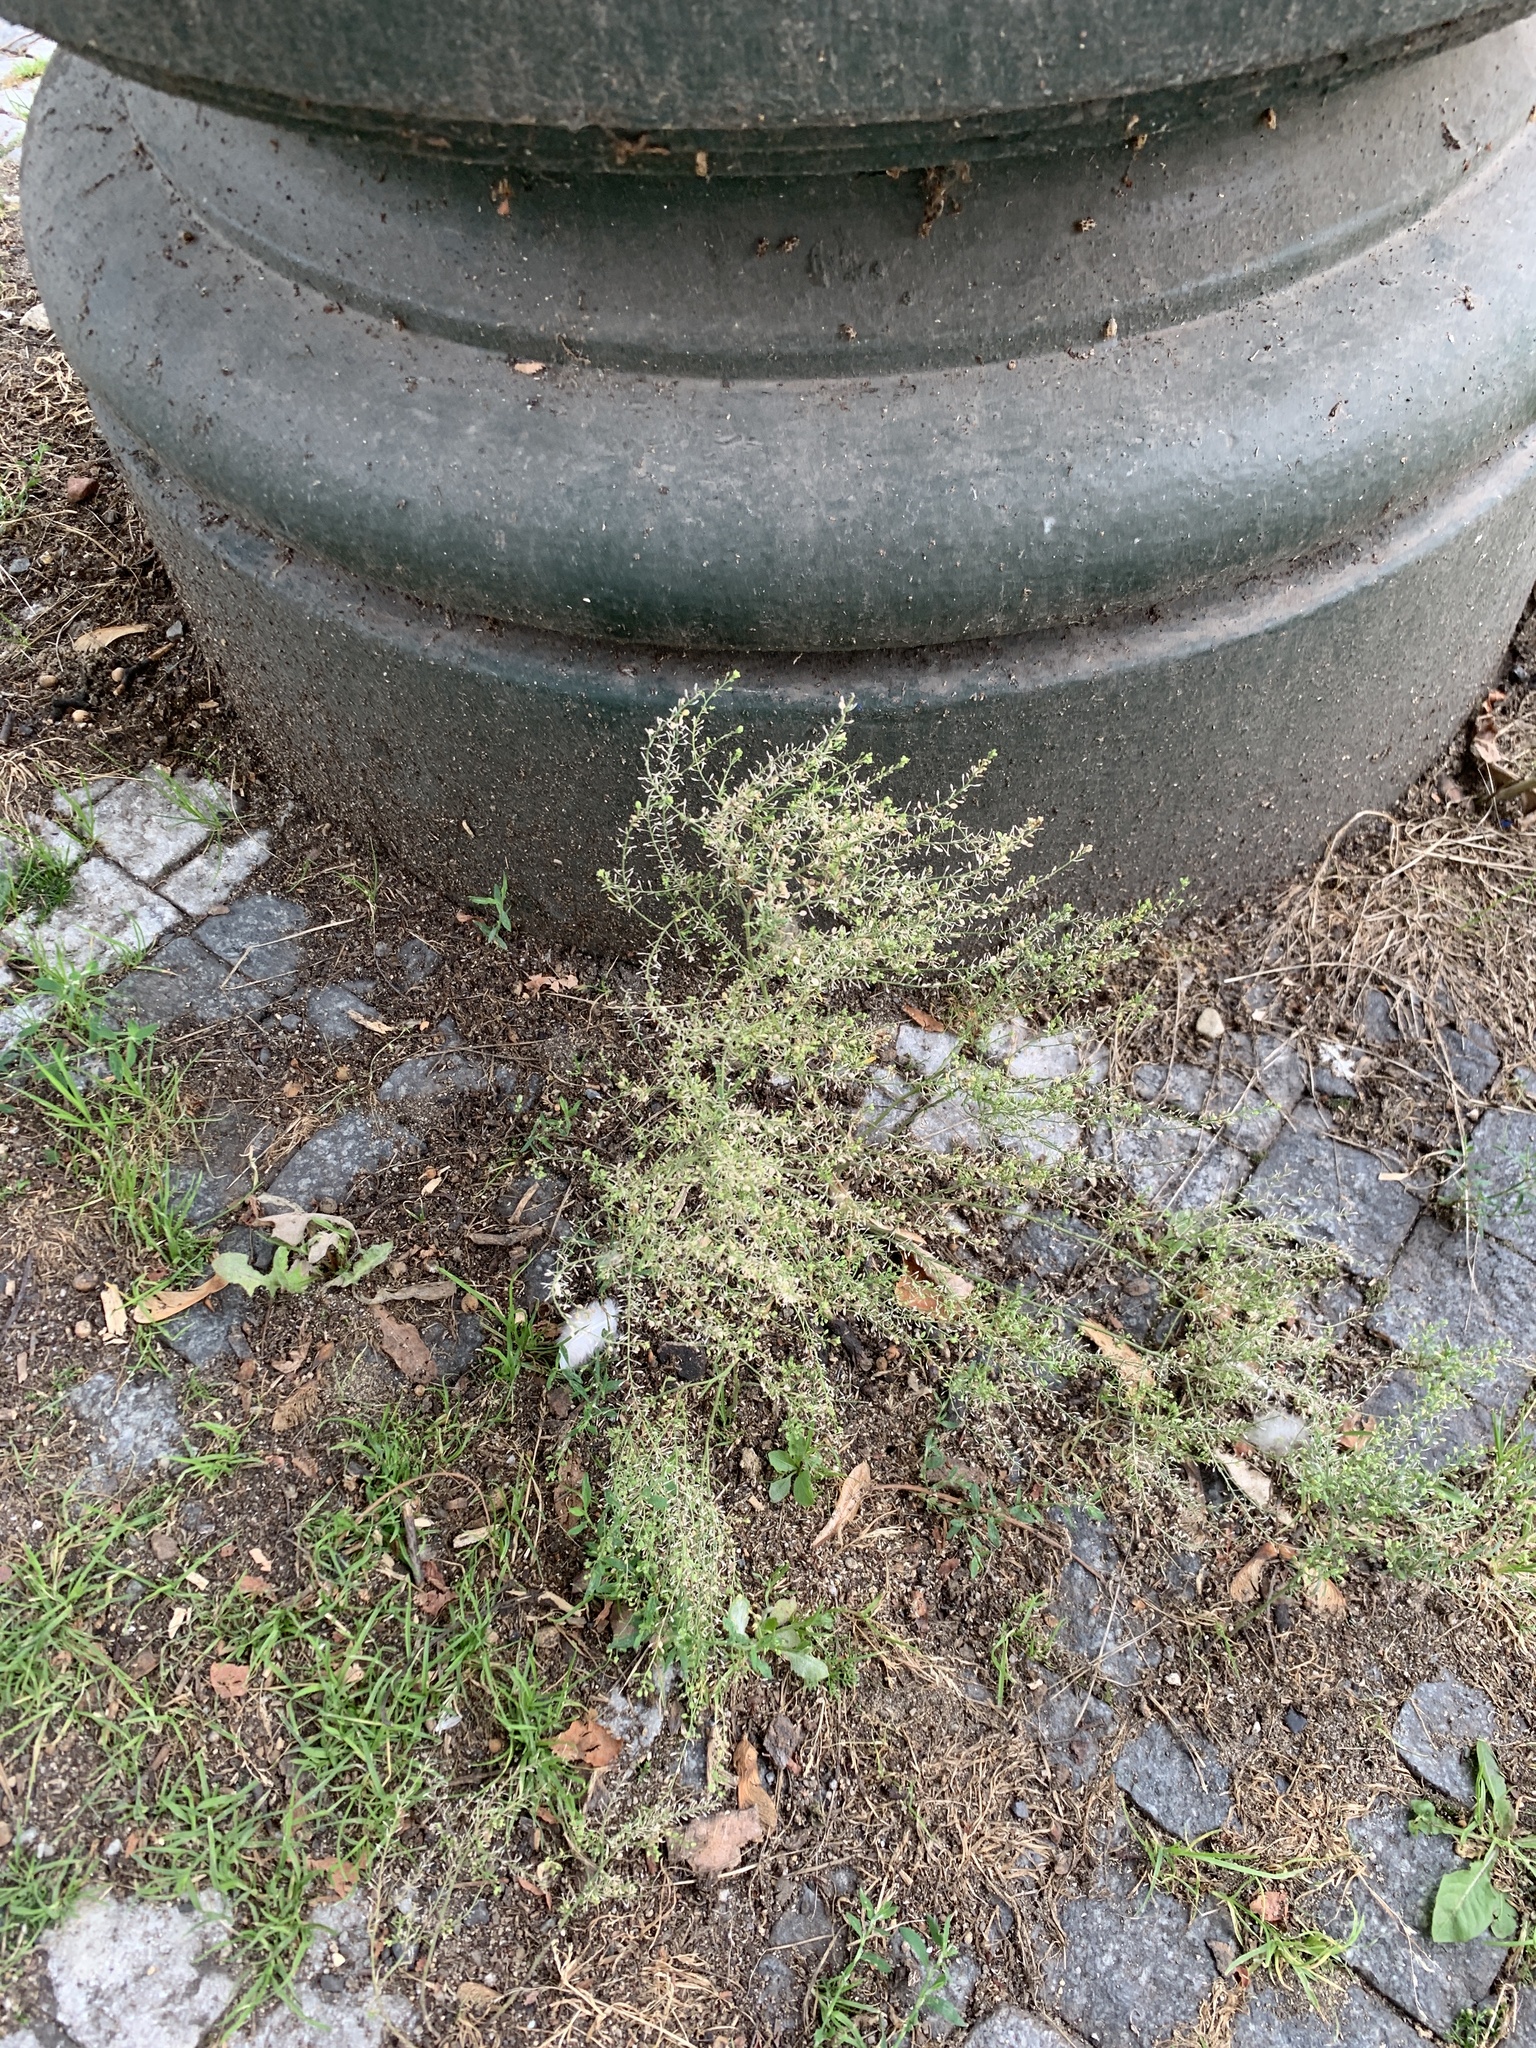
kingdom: Plantae
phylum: Tracheophyta
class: Magnoliopsida
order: Brassicales
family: Brassicaceae
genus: Lepidium
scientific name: Lepidium ruderale
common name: Narrow-leaved pepperwort
